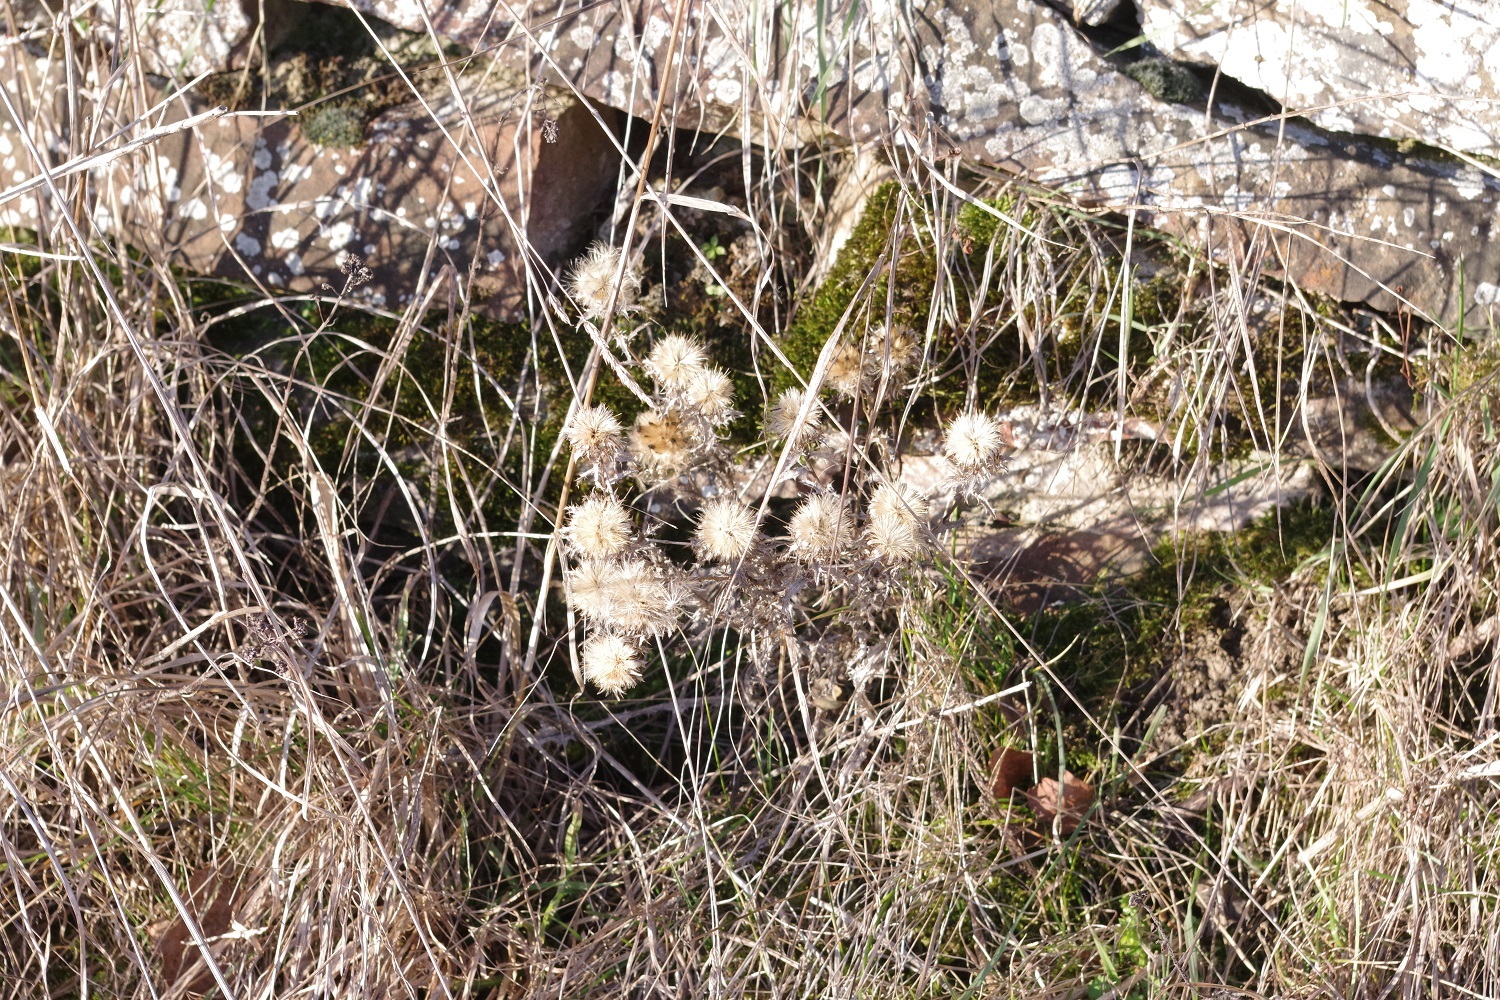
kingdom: Plantae
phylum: Tracheophyta
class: Magnoliopsida
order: Asterales
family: Asteraceae
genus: Carlina
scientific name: Carlina vulgaris
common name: Carline thistle
